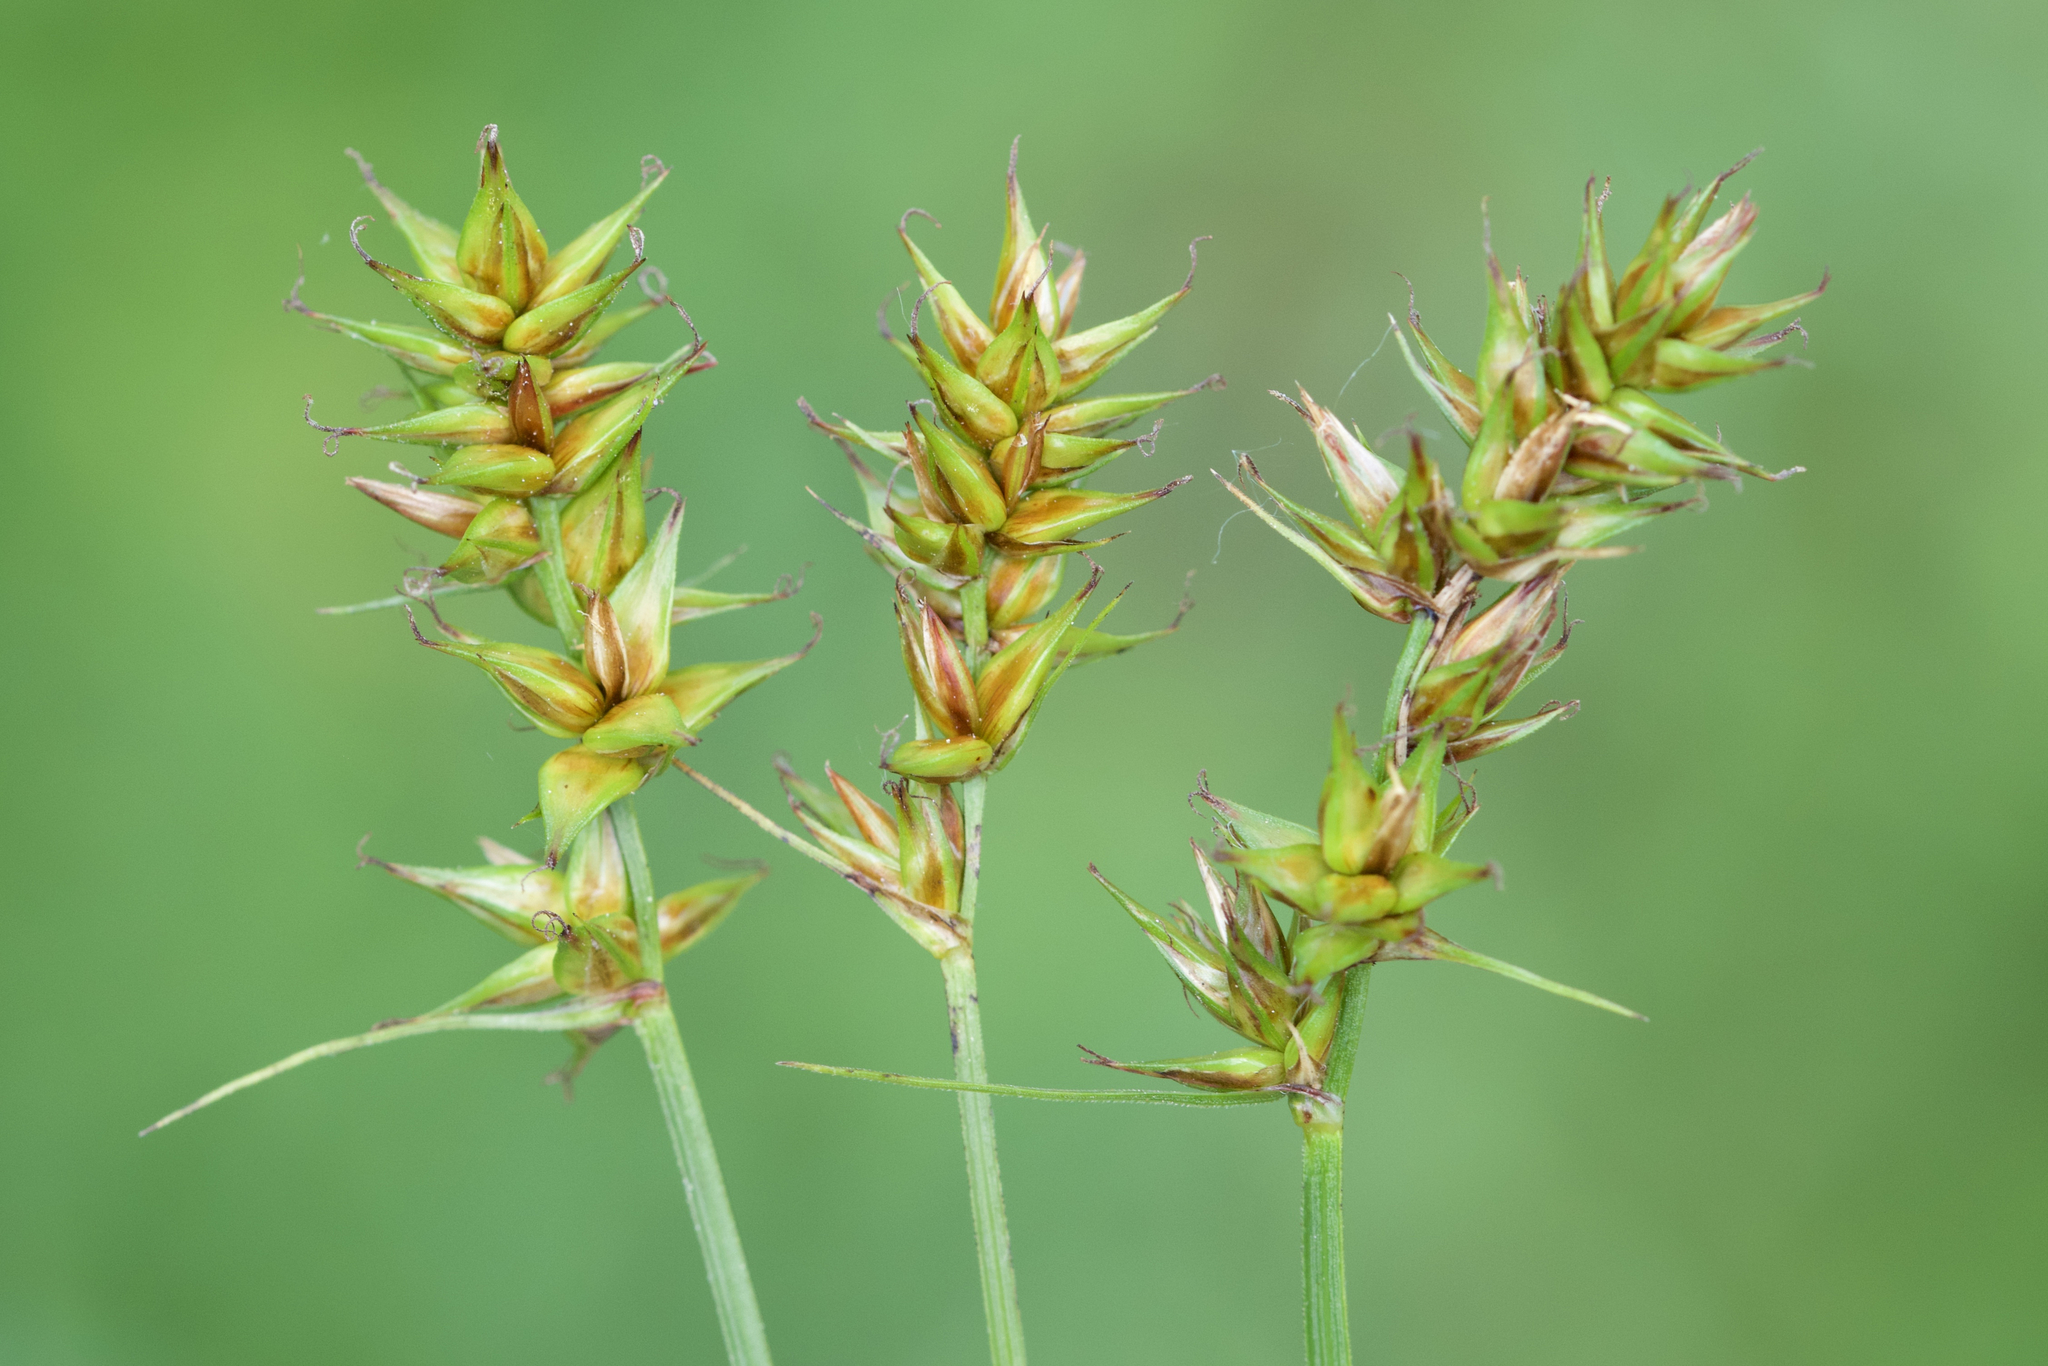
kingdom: Plantae
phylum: Tracheophyta
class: Liliopsida
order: Poales
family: Cyperaceae
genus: Carex
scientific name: Carex spicata
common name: Spiked sedge
